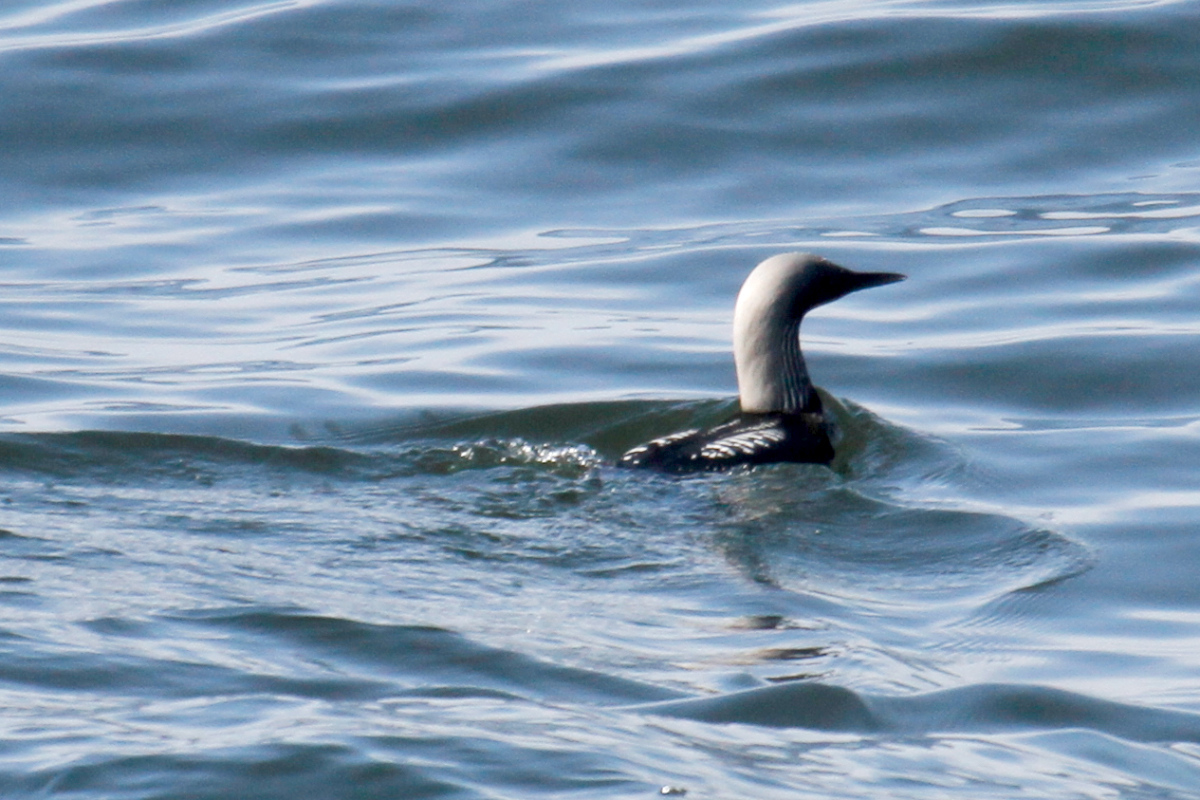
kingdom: Animalia
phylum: Chordata
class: Aves
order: Gaviiformes
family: Gaviidae
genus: Gavia
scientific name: Gavia pacifica
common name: Pacific loon
